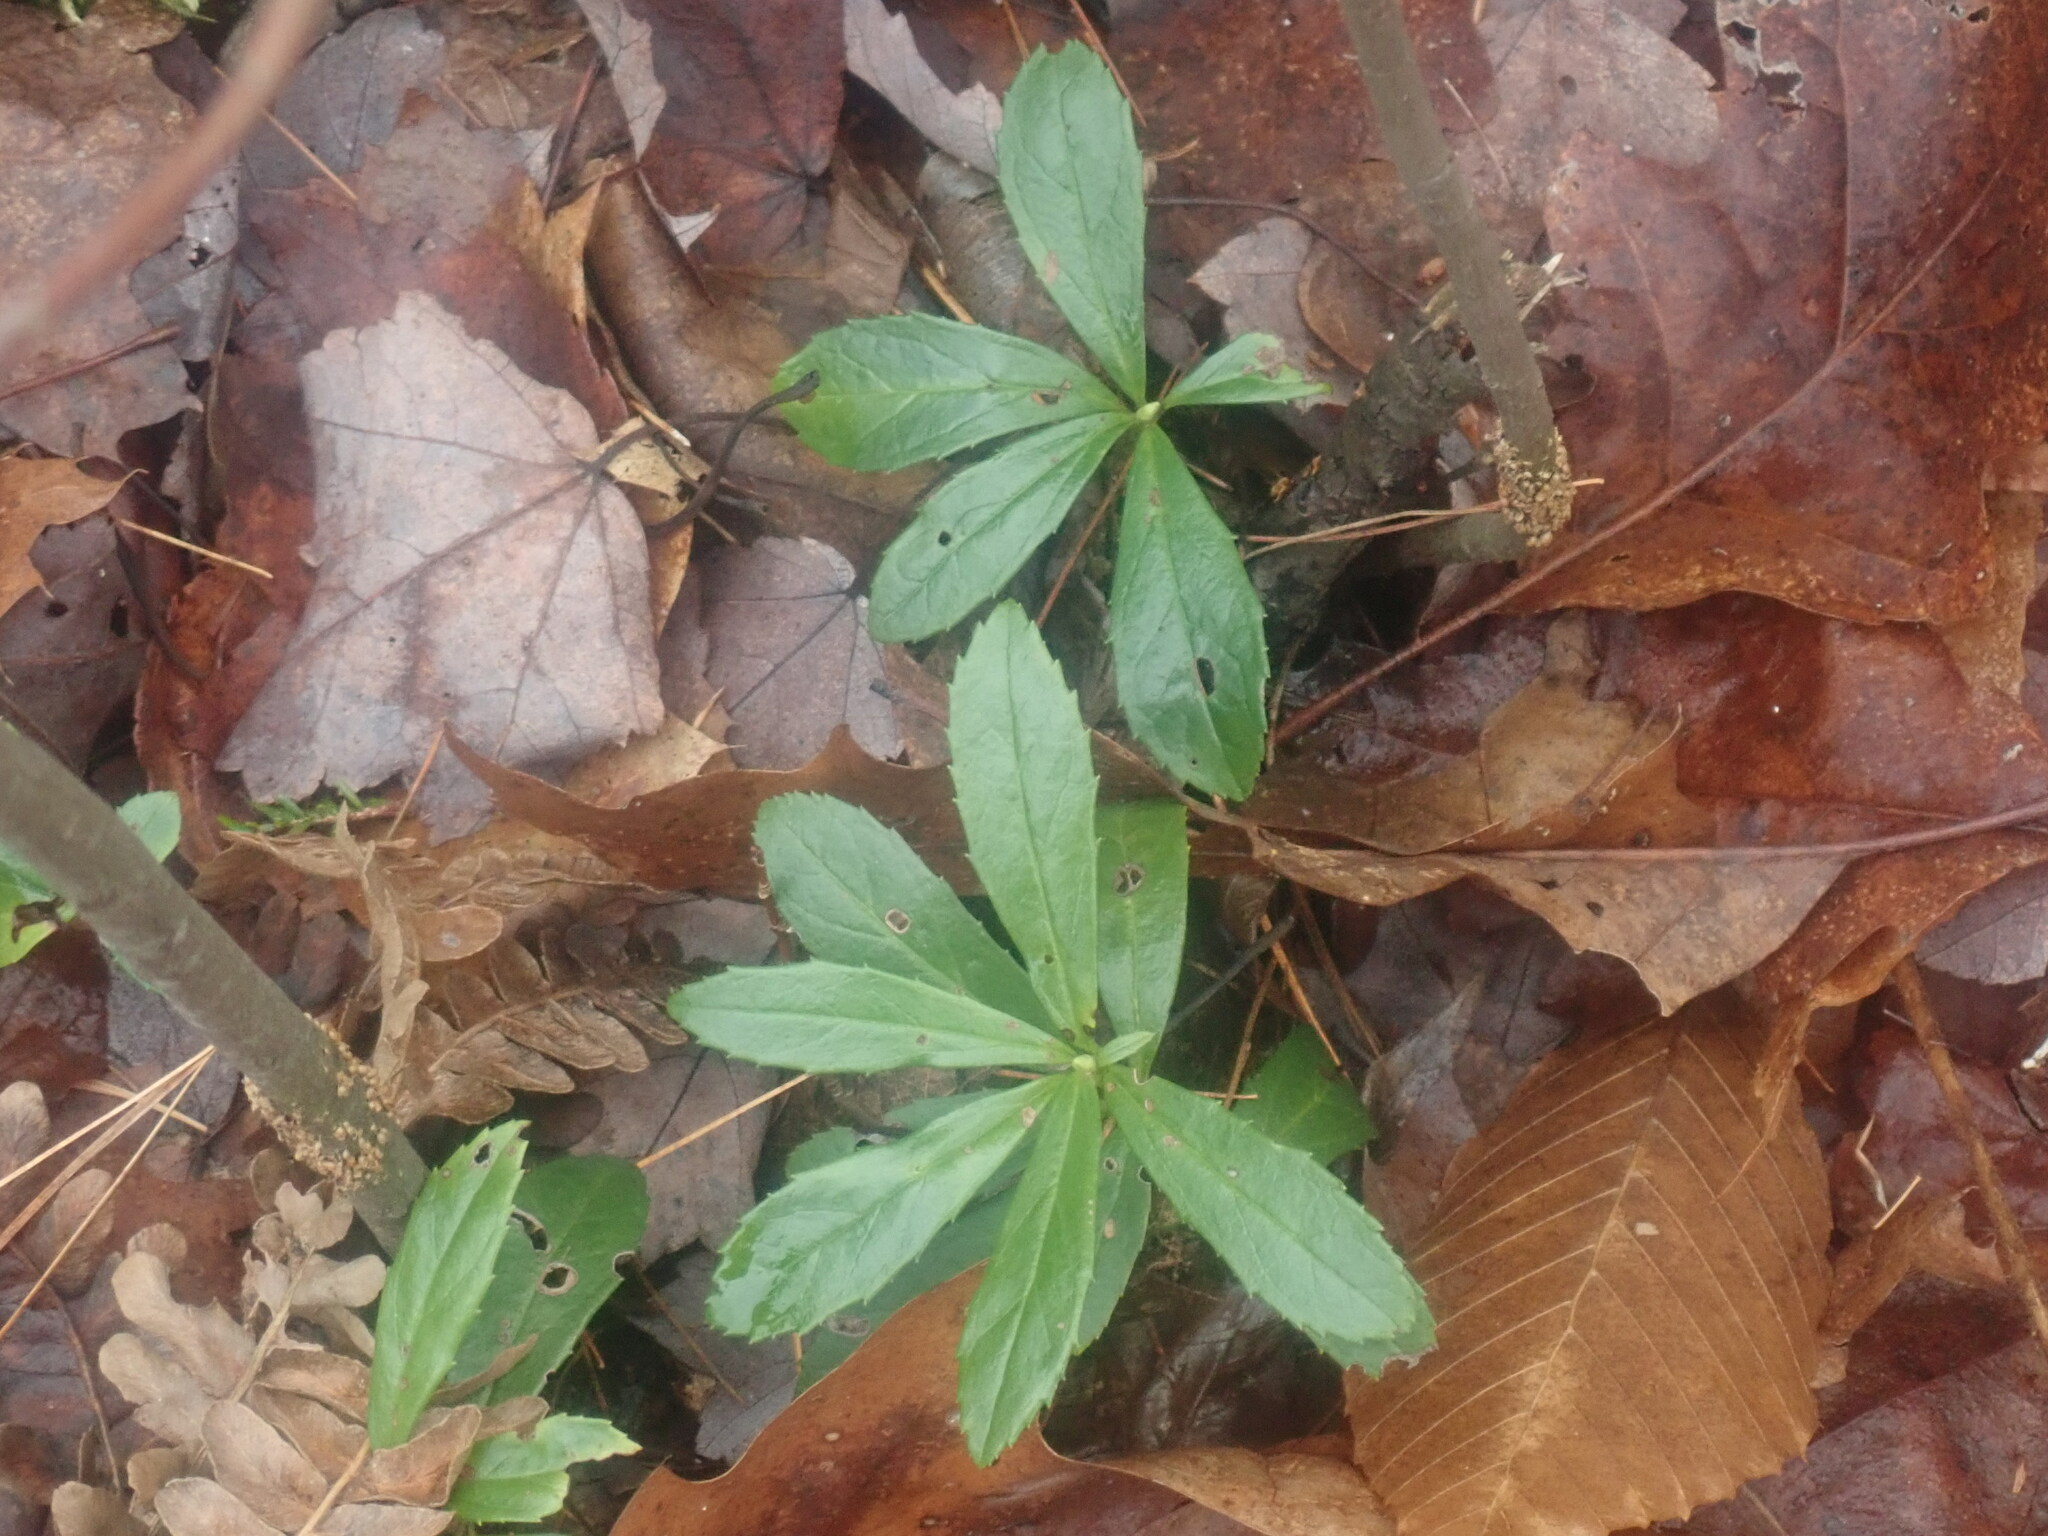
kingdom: Plantae
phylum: Tracheophyta
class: Magnoliopsida
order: Ericales
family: Ericaceae
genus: Chimaphila
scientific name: Chimaphila umbellata
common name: Pipsissewa
